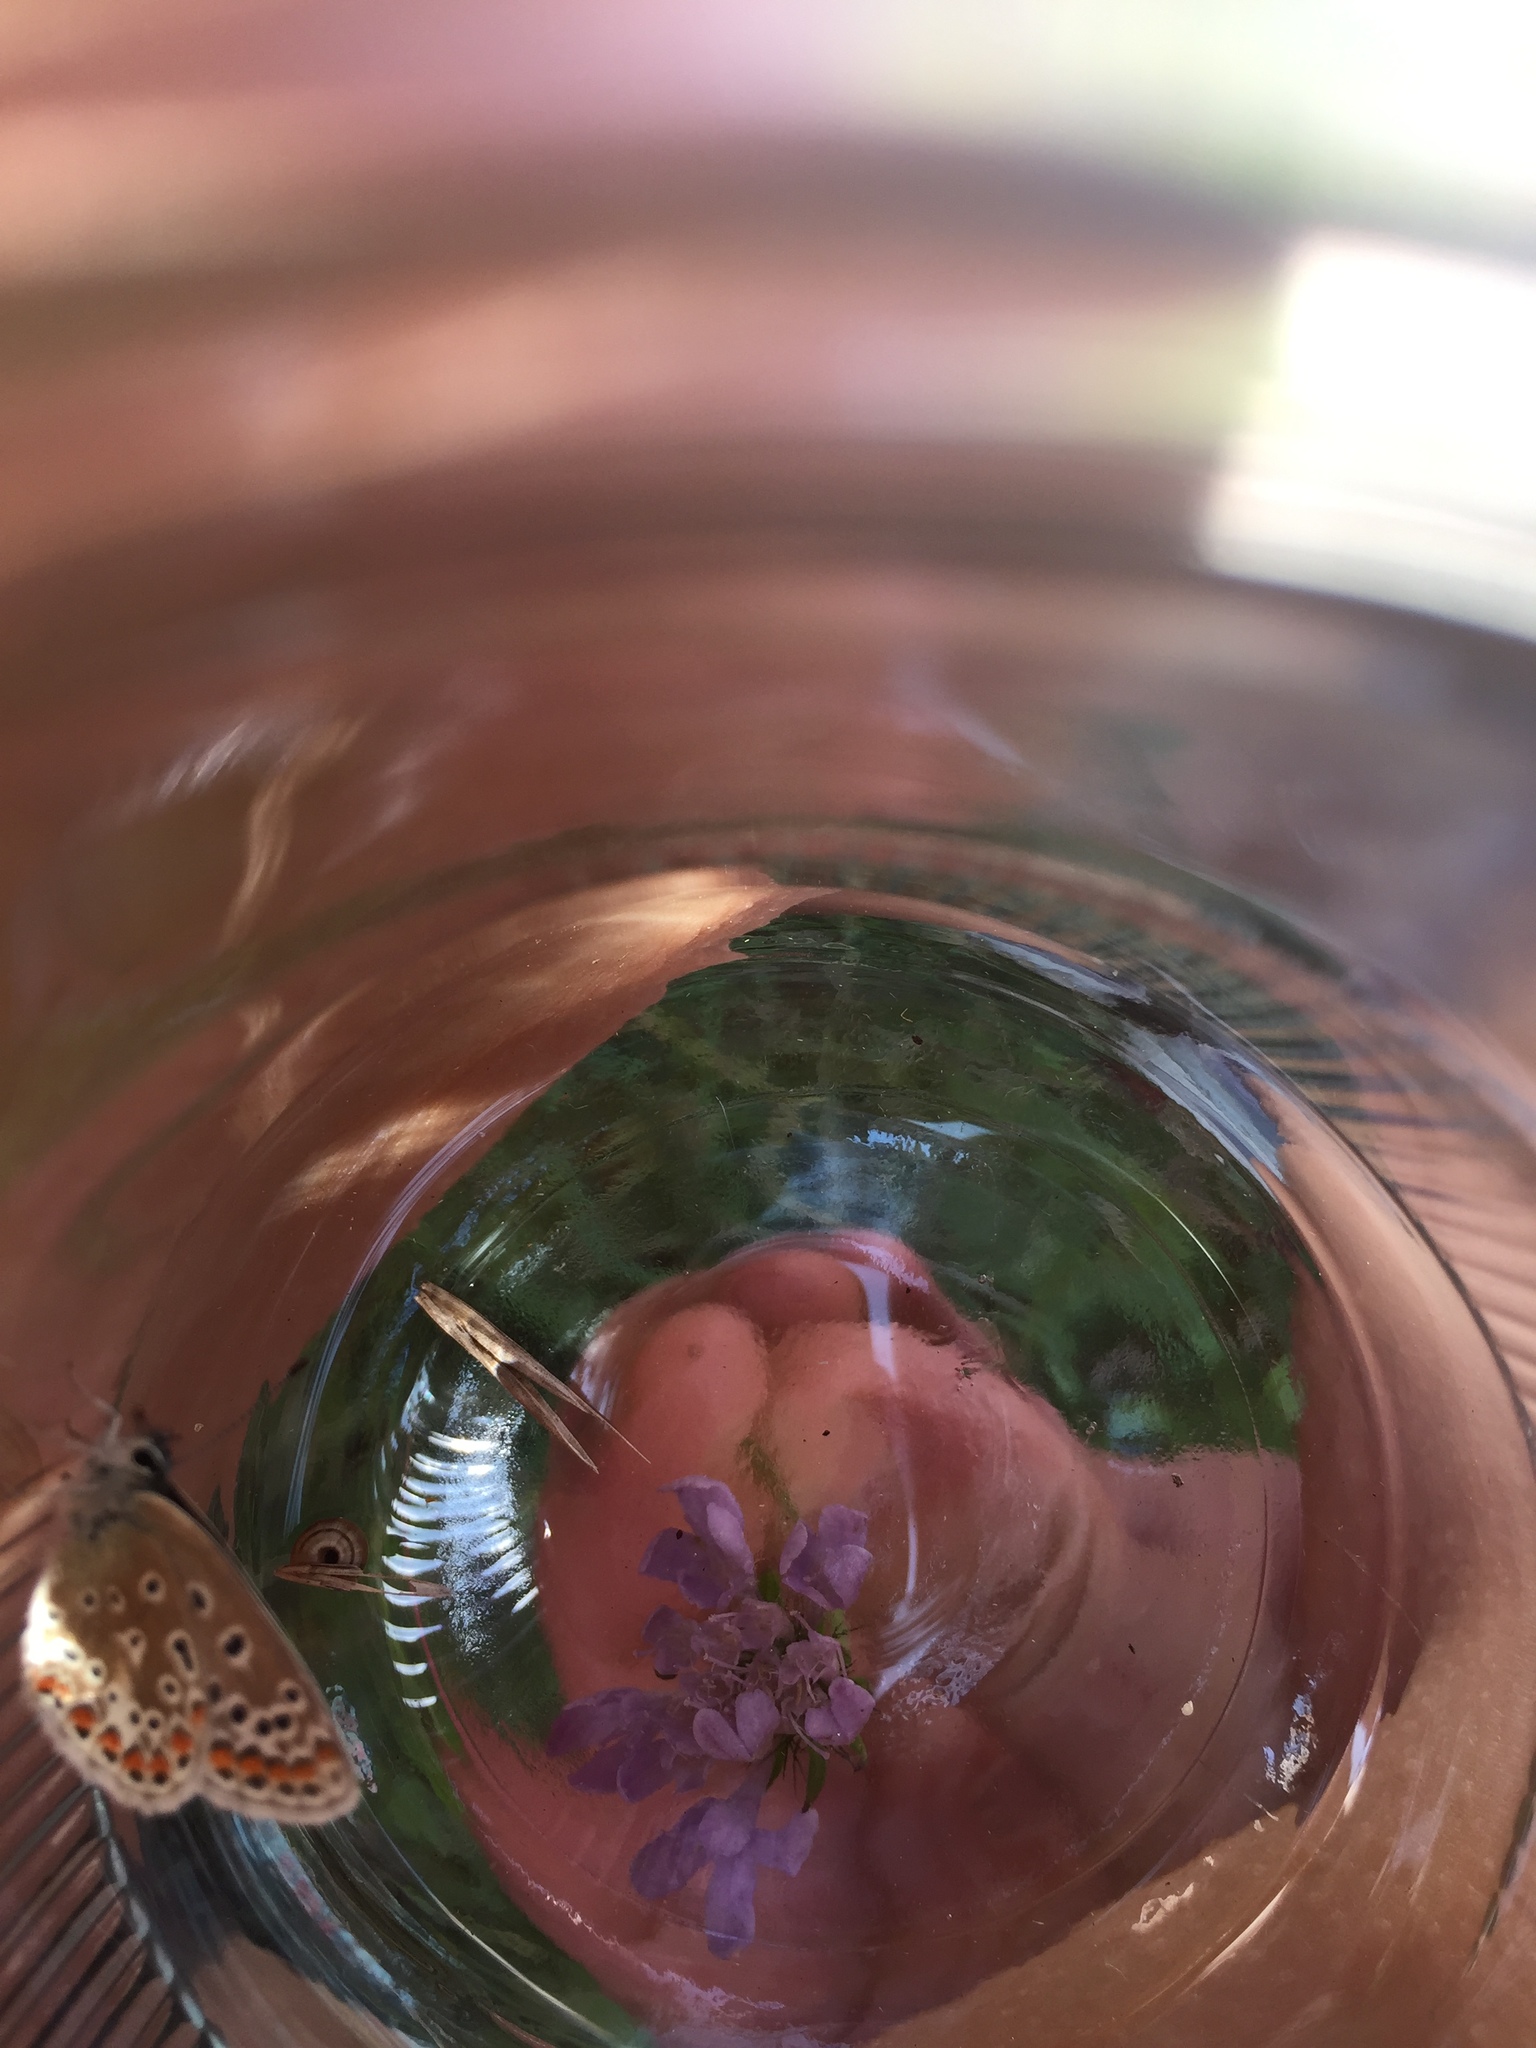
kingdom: Animalia
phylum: Arthropoda
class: Insecta
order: Lepidoptera
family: Lycaenidae
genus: Polyommatus
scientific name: Polyommatus icarus
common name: Common blue
